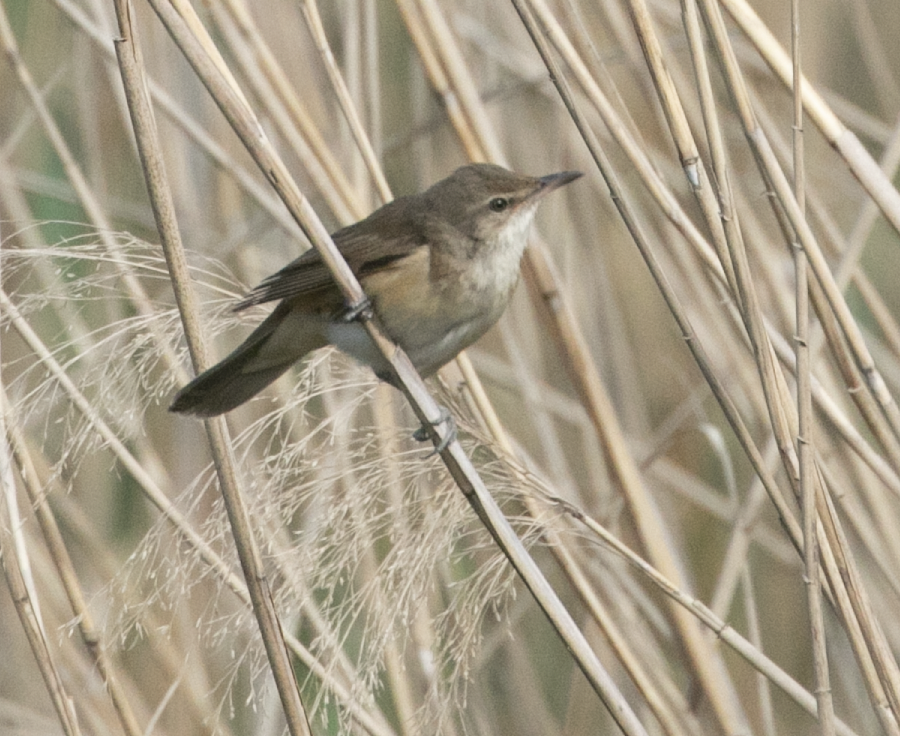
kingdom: Animalia
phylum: Chordata
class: Aves
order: Passeriformes
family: Acrocephalidae
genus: Acrocephalus
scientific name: Acrocephalus arundinaceus
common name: Great reed warbler
